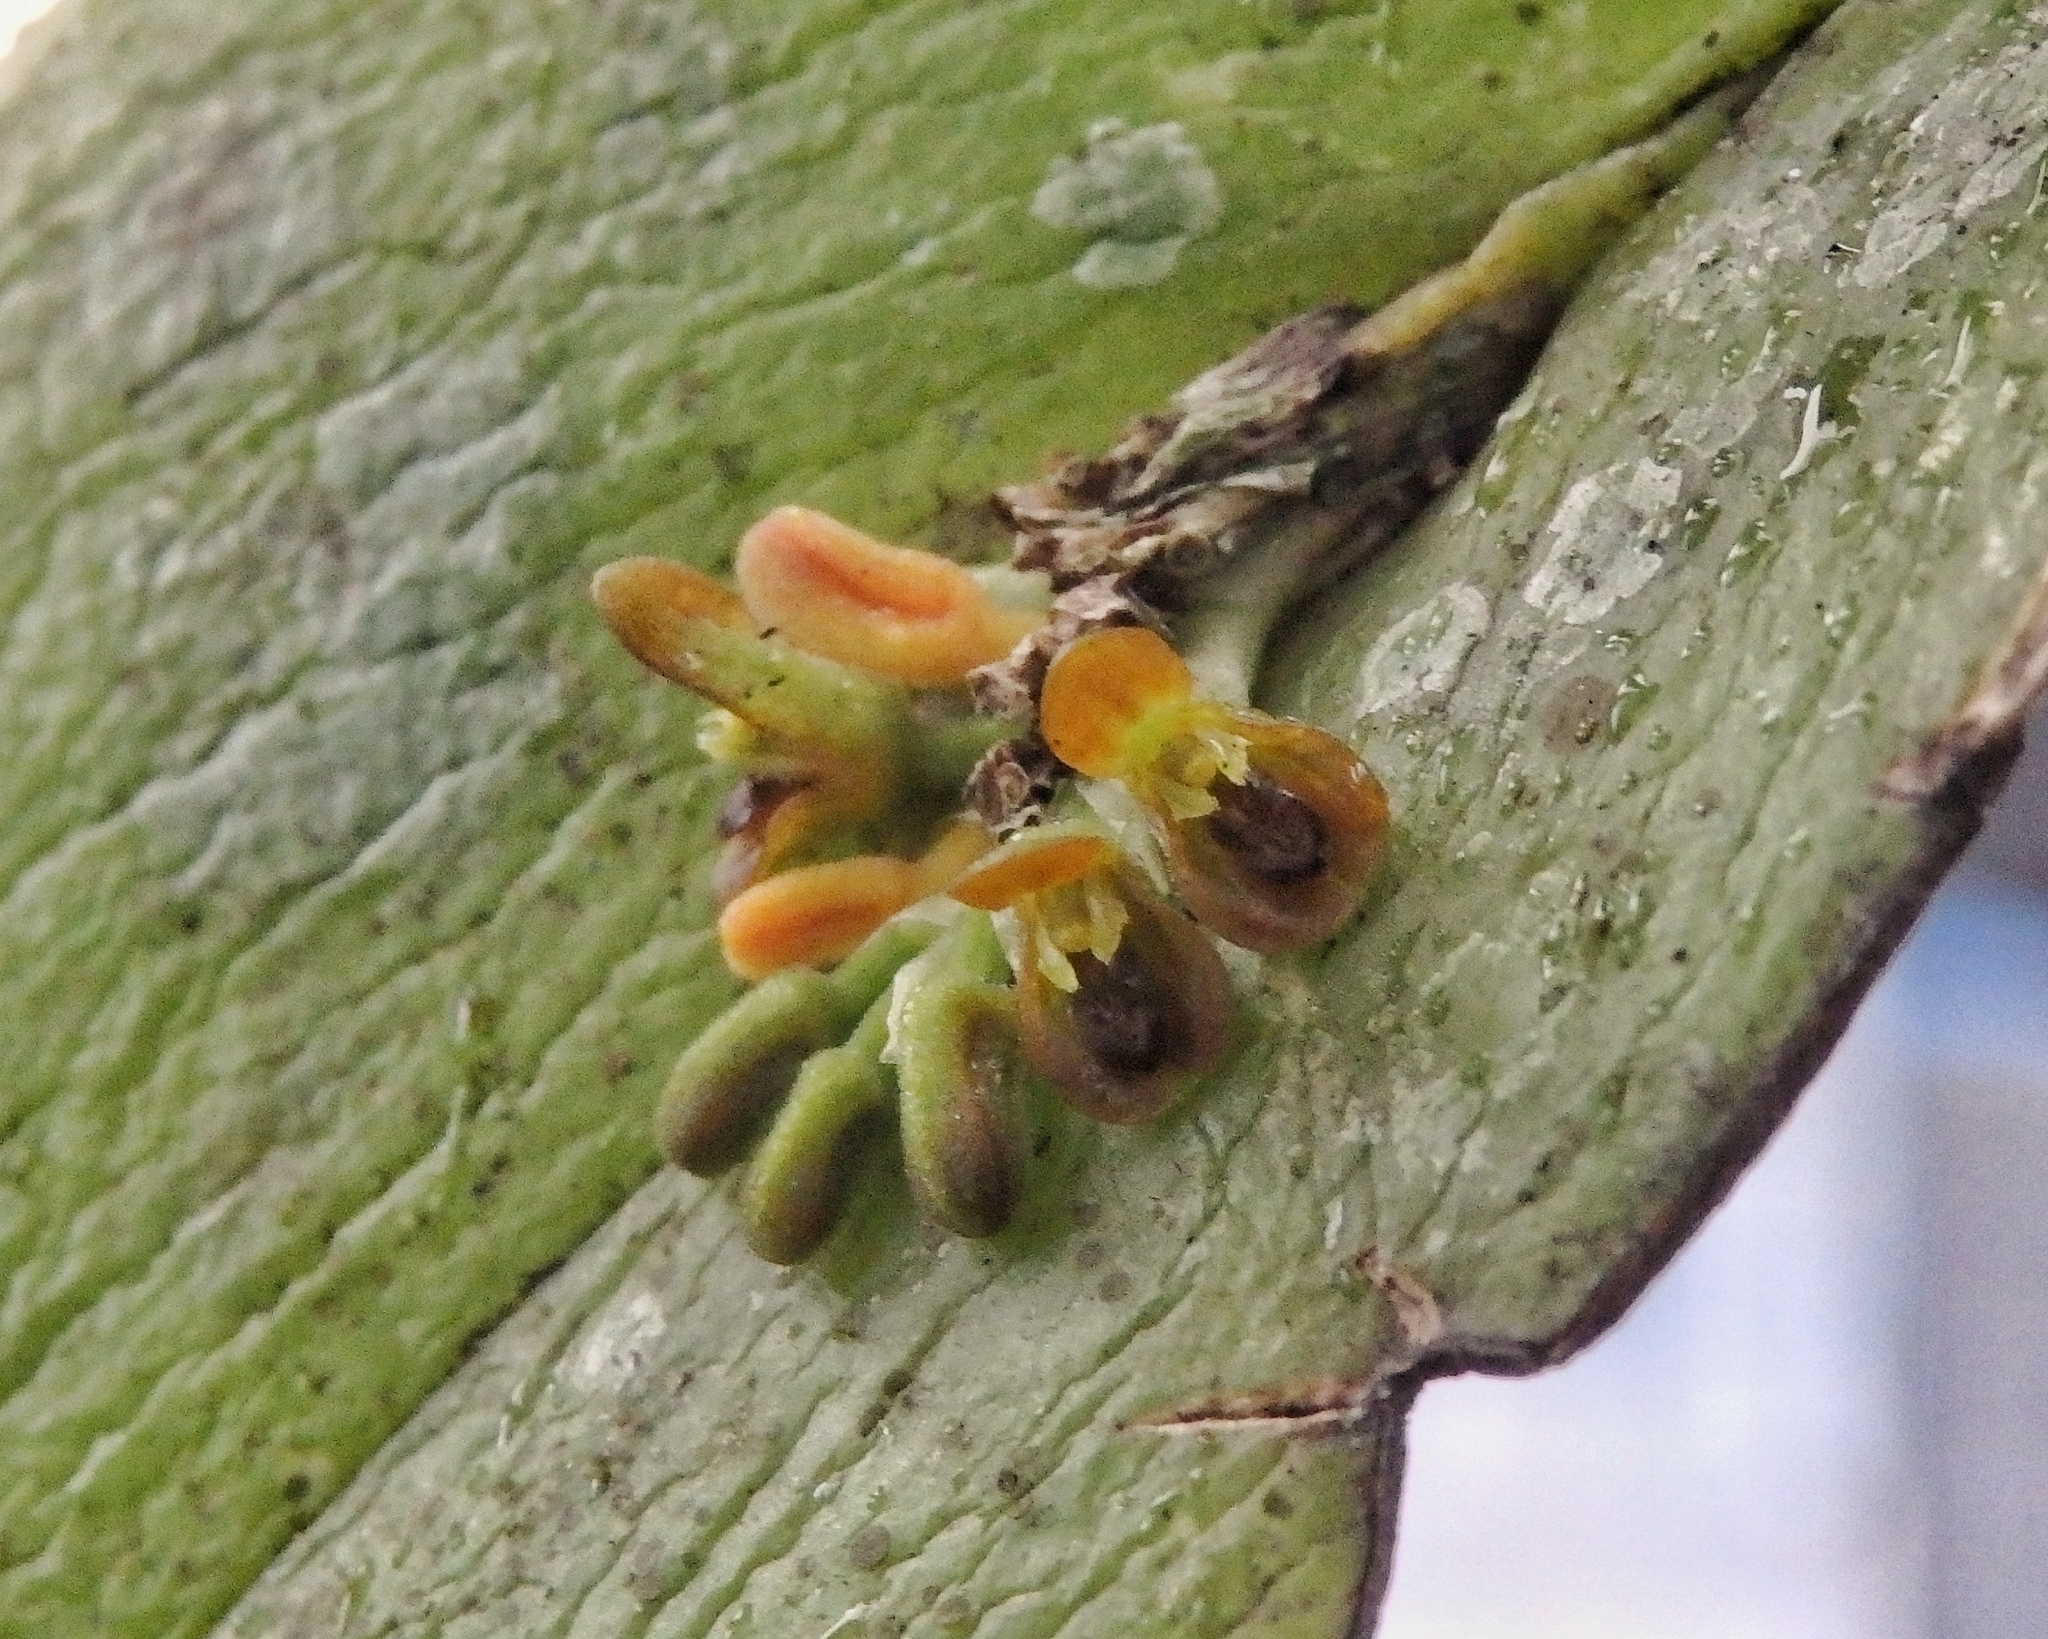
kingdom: Plantae
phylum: Tracheophyta
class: Liliopsida
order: Asparagales
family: Orchidaceae
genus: Acianthera
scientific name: Acianthera circumplexa
